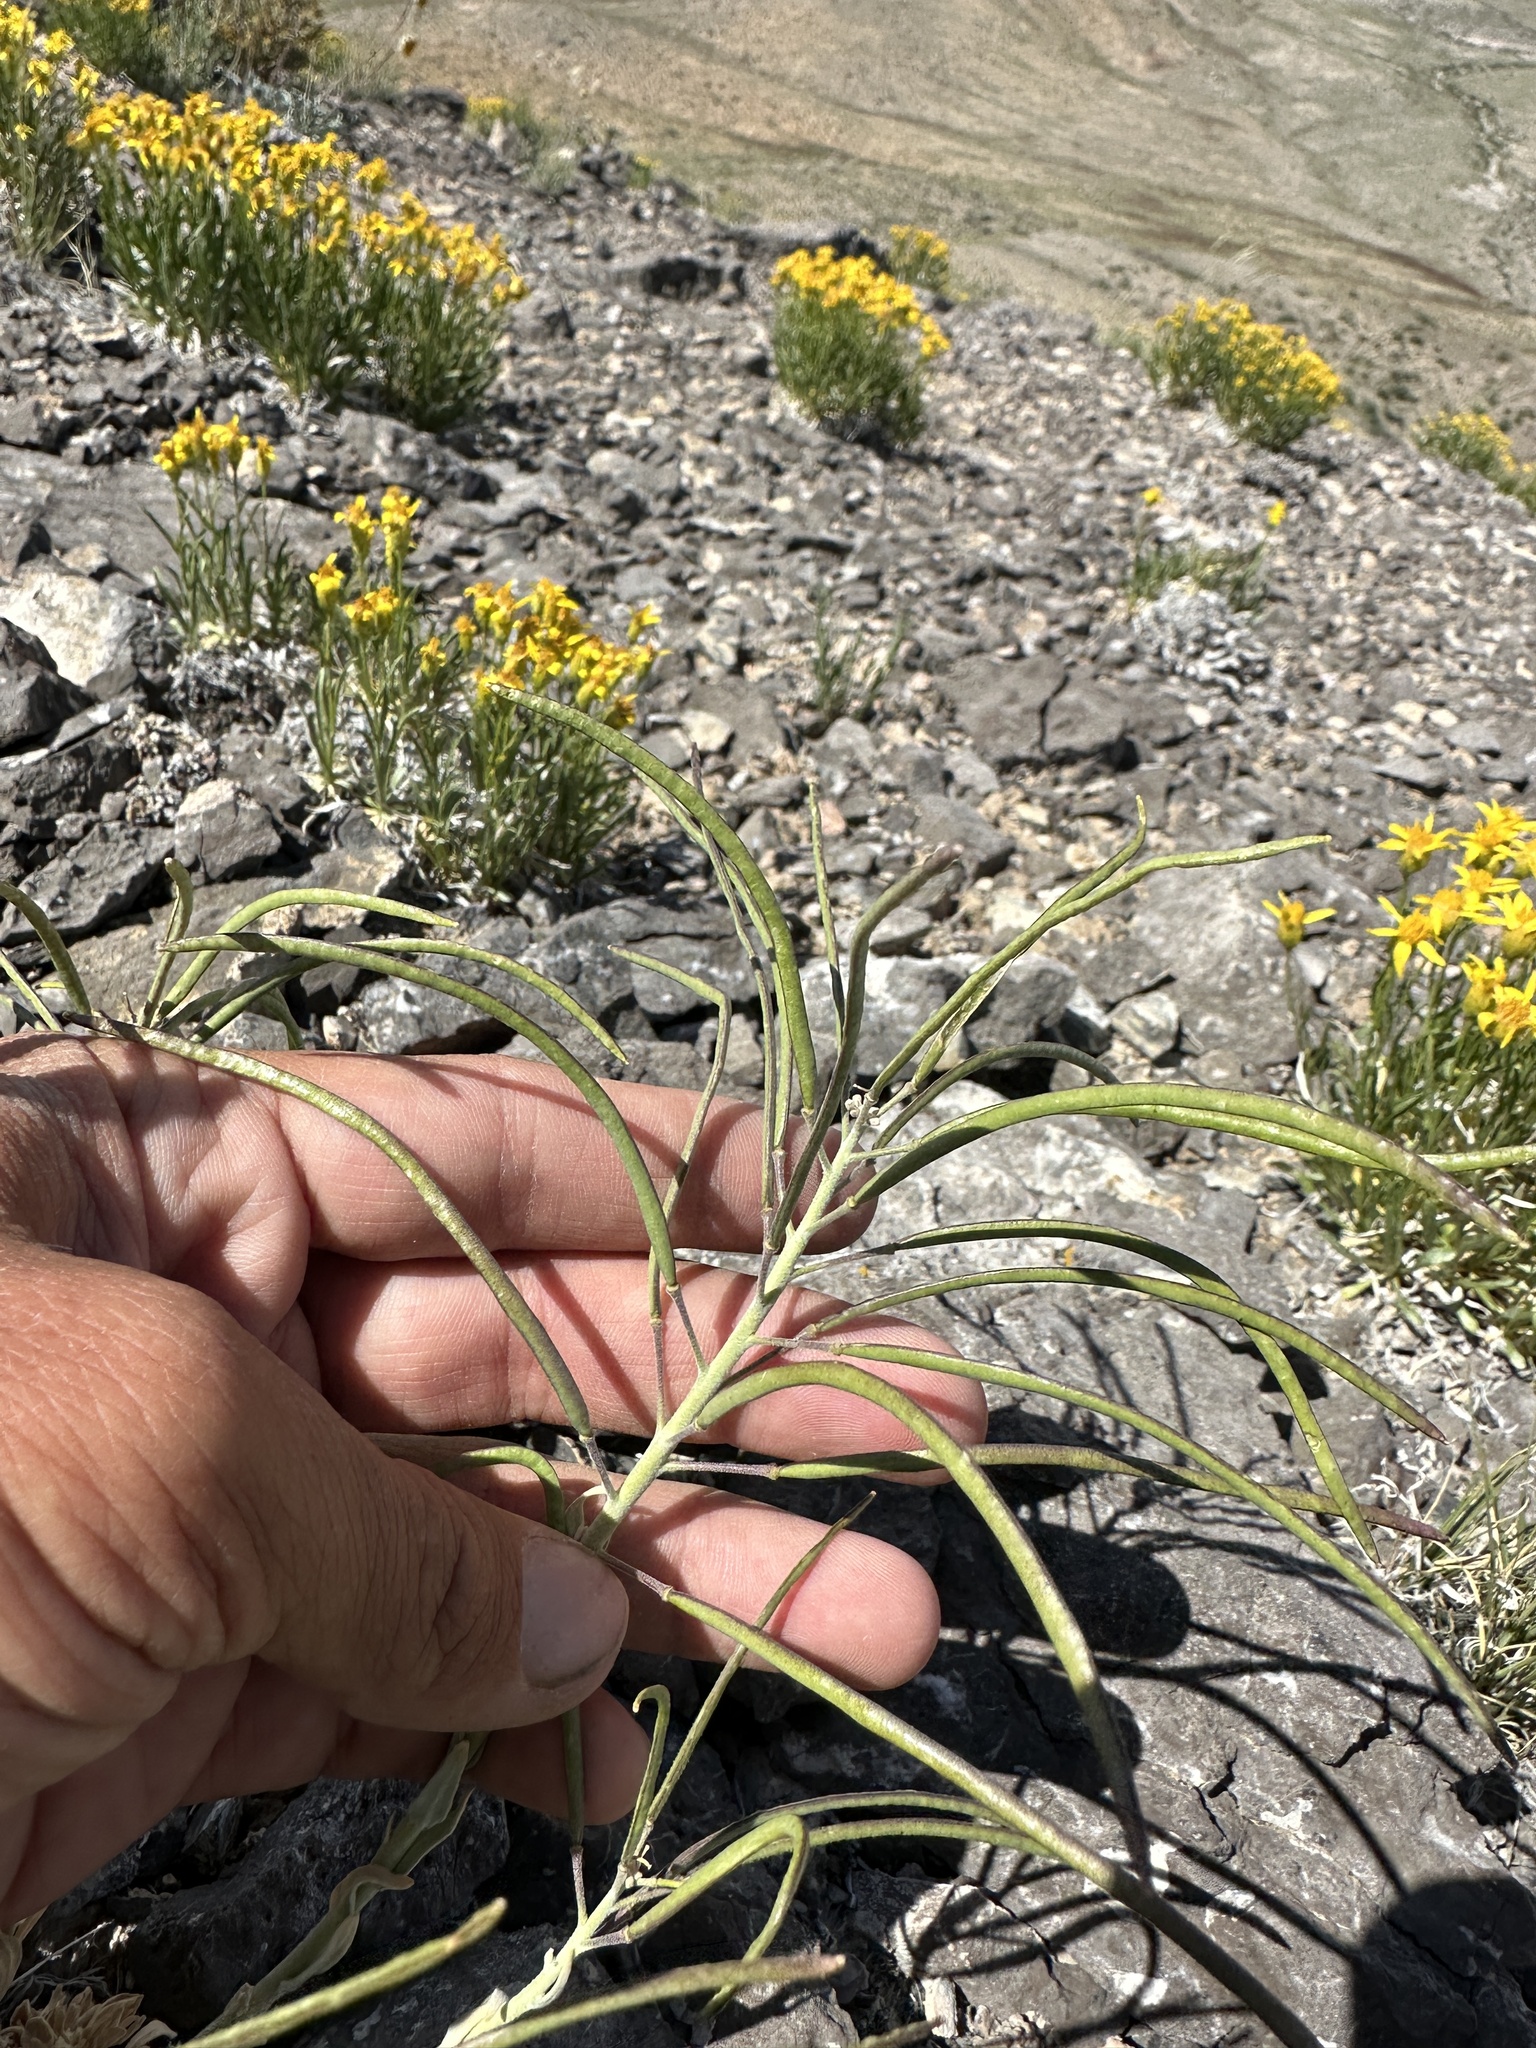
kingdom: Plantae
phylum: Tracheophyta
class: Magnoliopsida
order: Brassicales
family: Brassicaceae
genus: Boechera
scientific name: Boechera shockleyi
